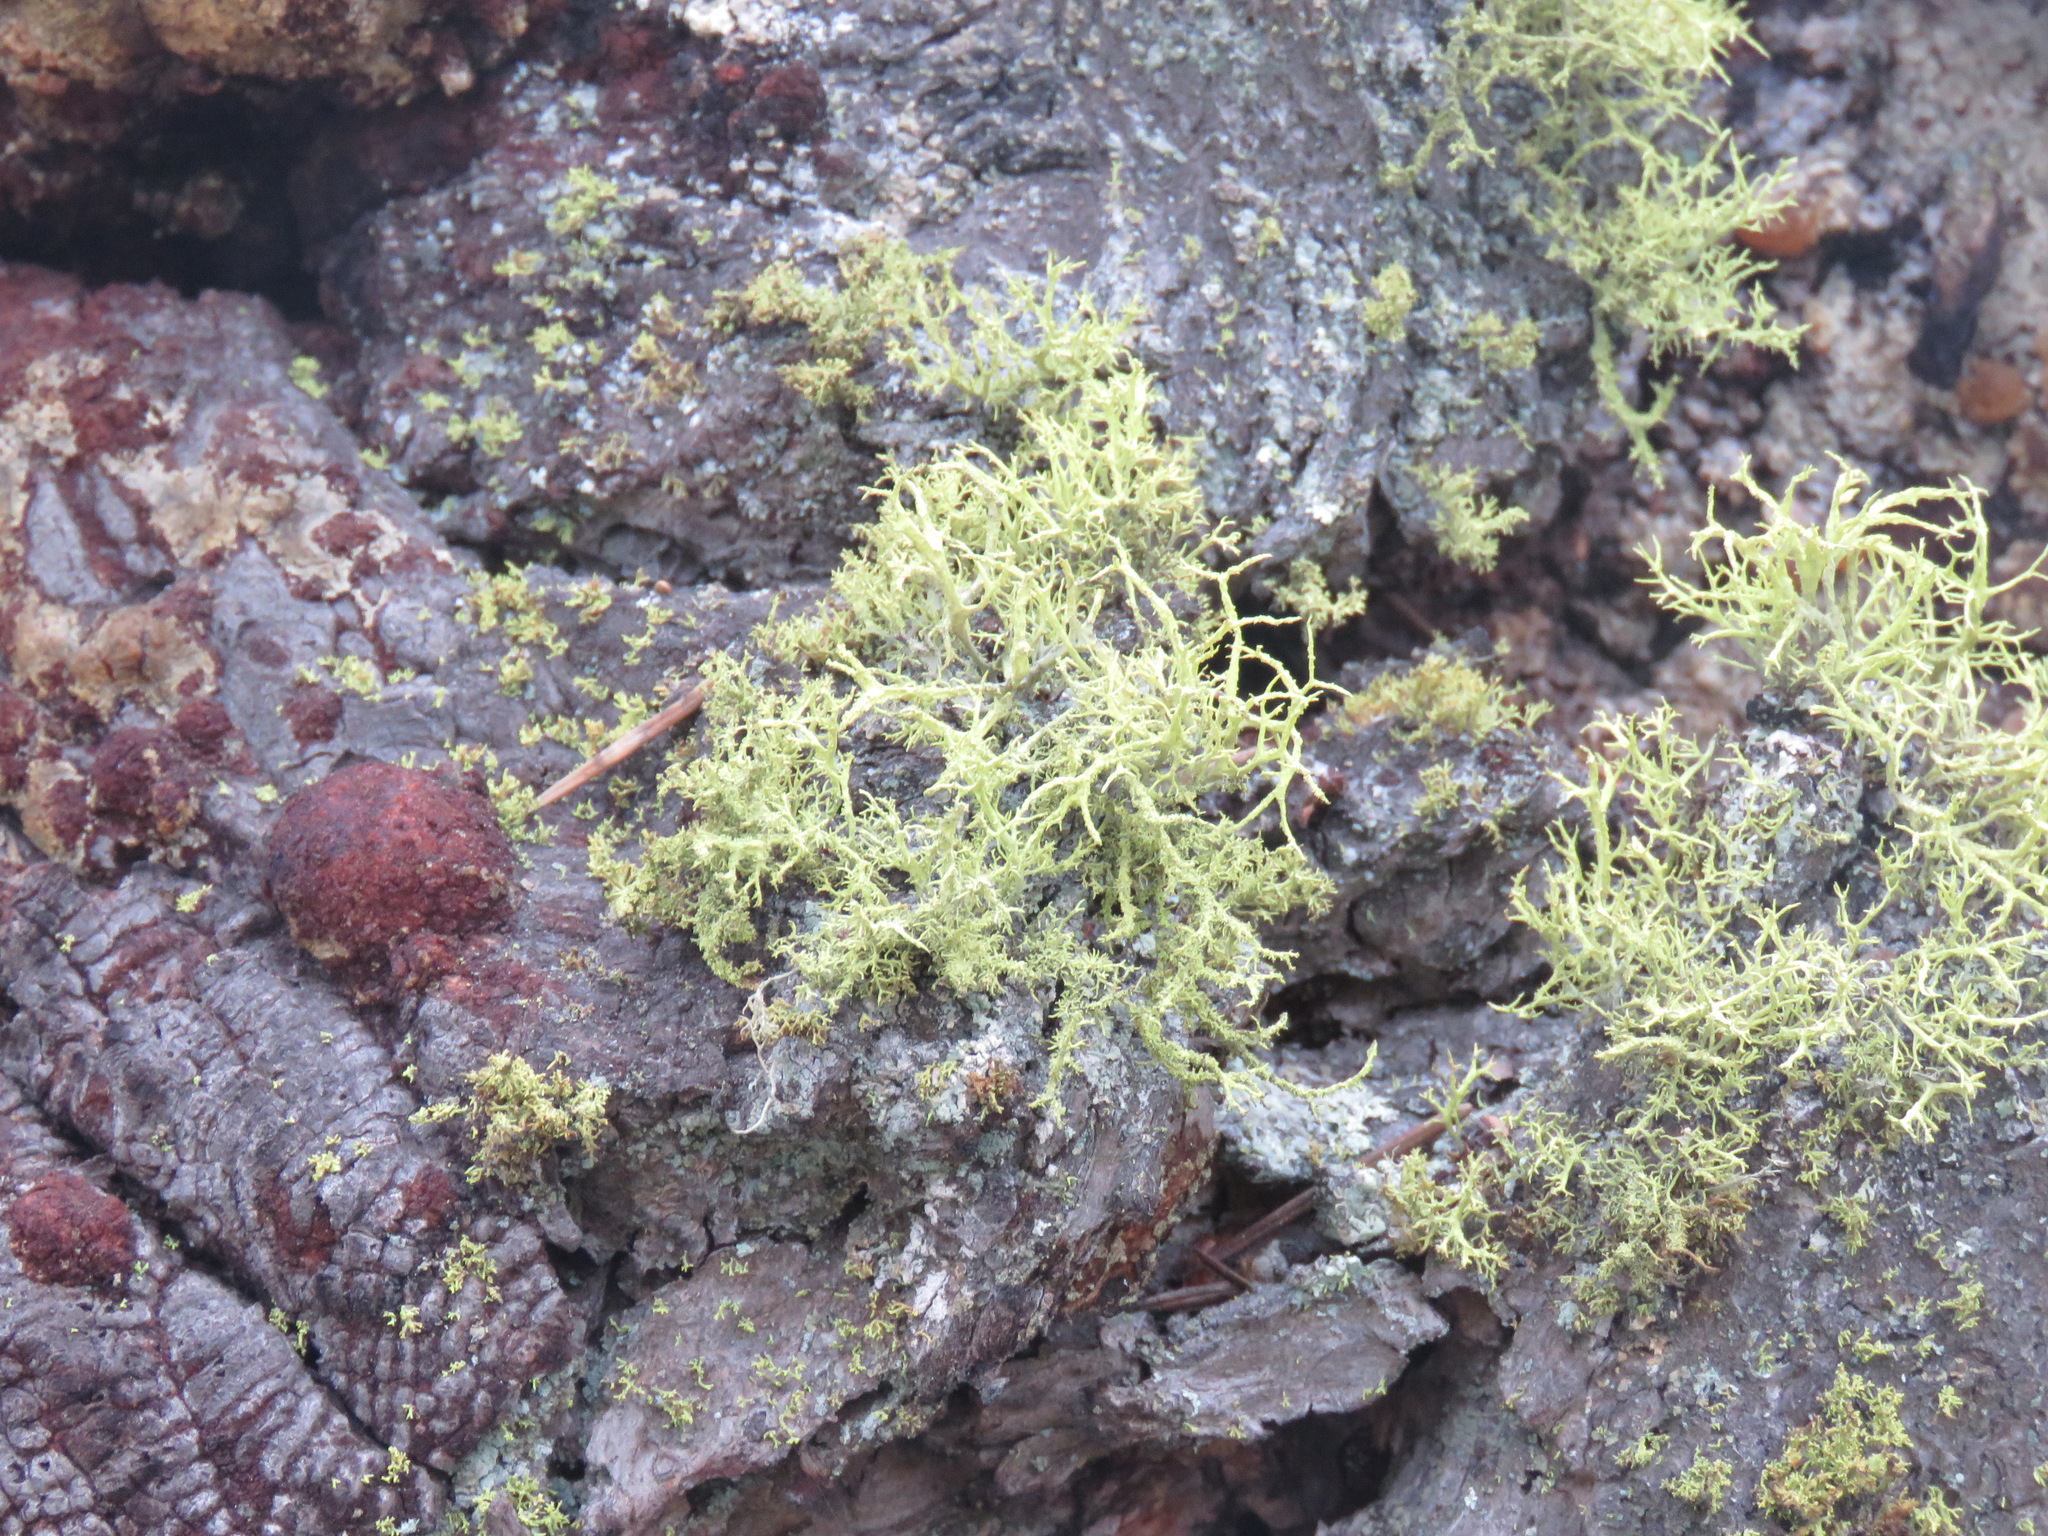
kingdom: Fungi
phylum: Ascomycota
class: Lecanoromycetes
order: Lecanorales
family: Parmeliaceae
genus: Letharia
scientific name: Letharia vulpina
